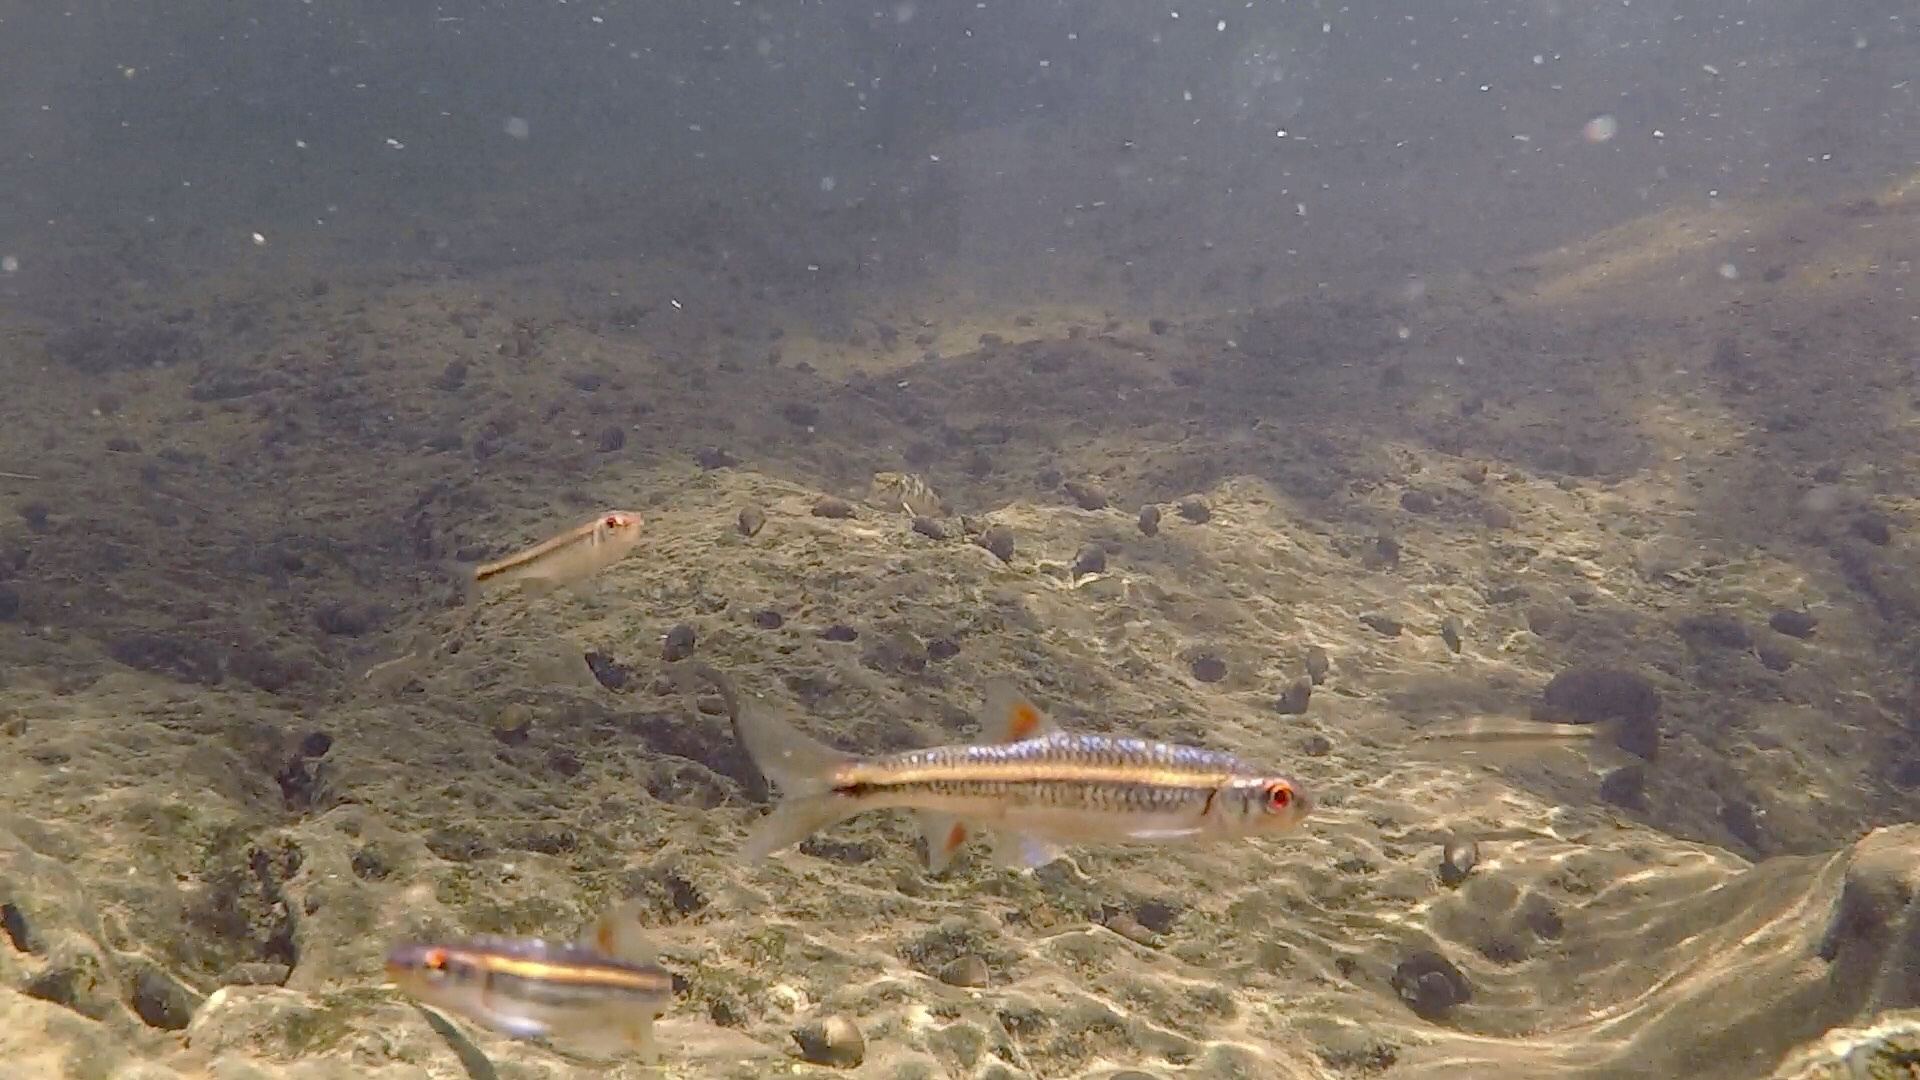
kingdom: Animalia
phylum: Chordata
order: Cypriniformes
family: Cyprinidae
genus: Notropis
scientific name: Notropis
